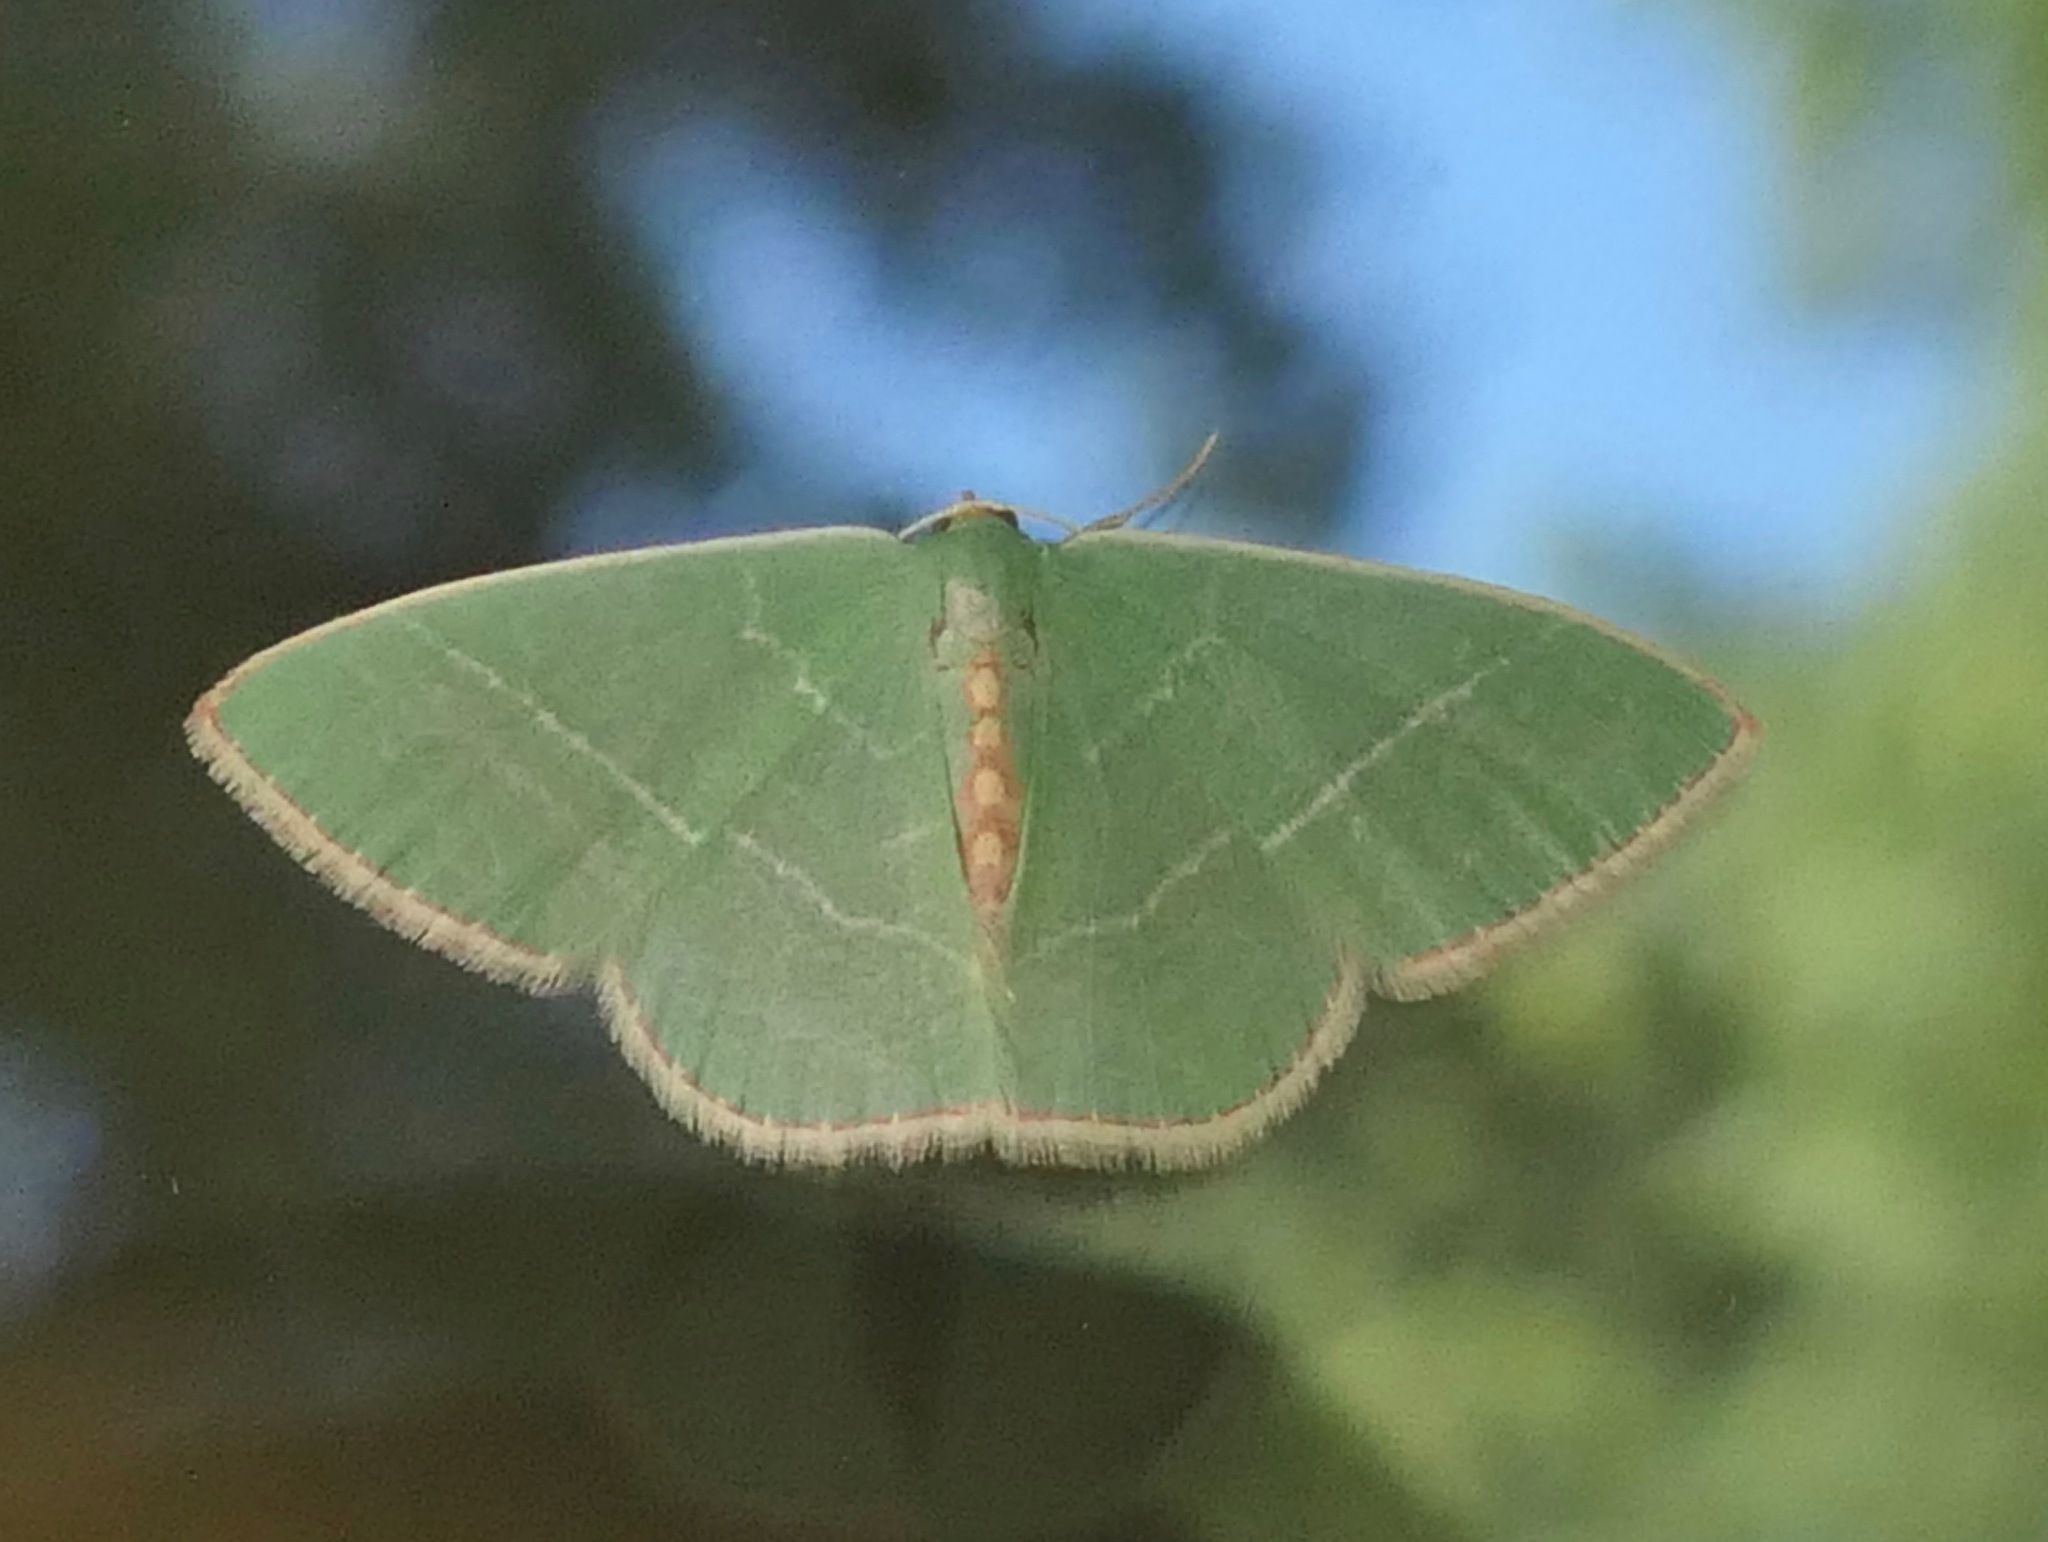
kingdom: Animalia
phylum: Arthropoda
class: Insecta
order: Lepidoptera
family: Geometridae
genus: Nemoria
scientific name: Nemoria festaria
